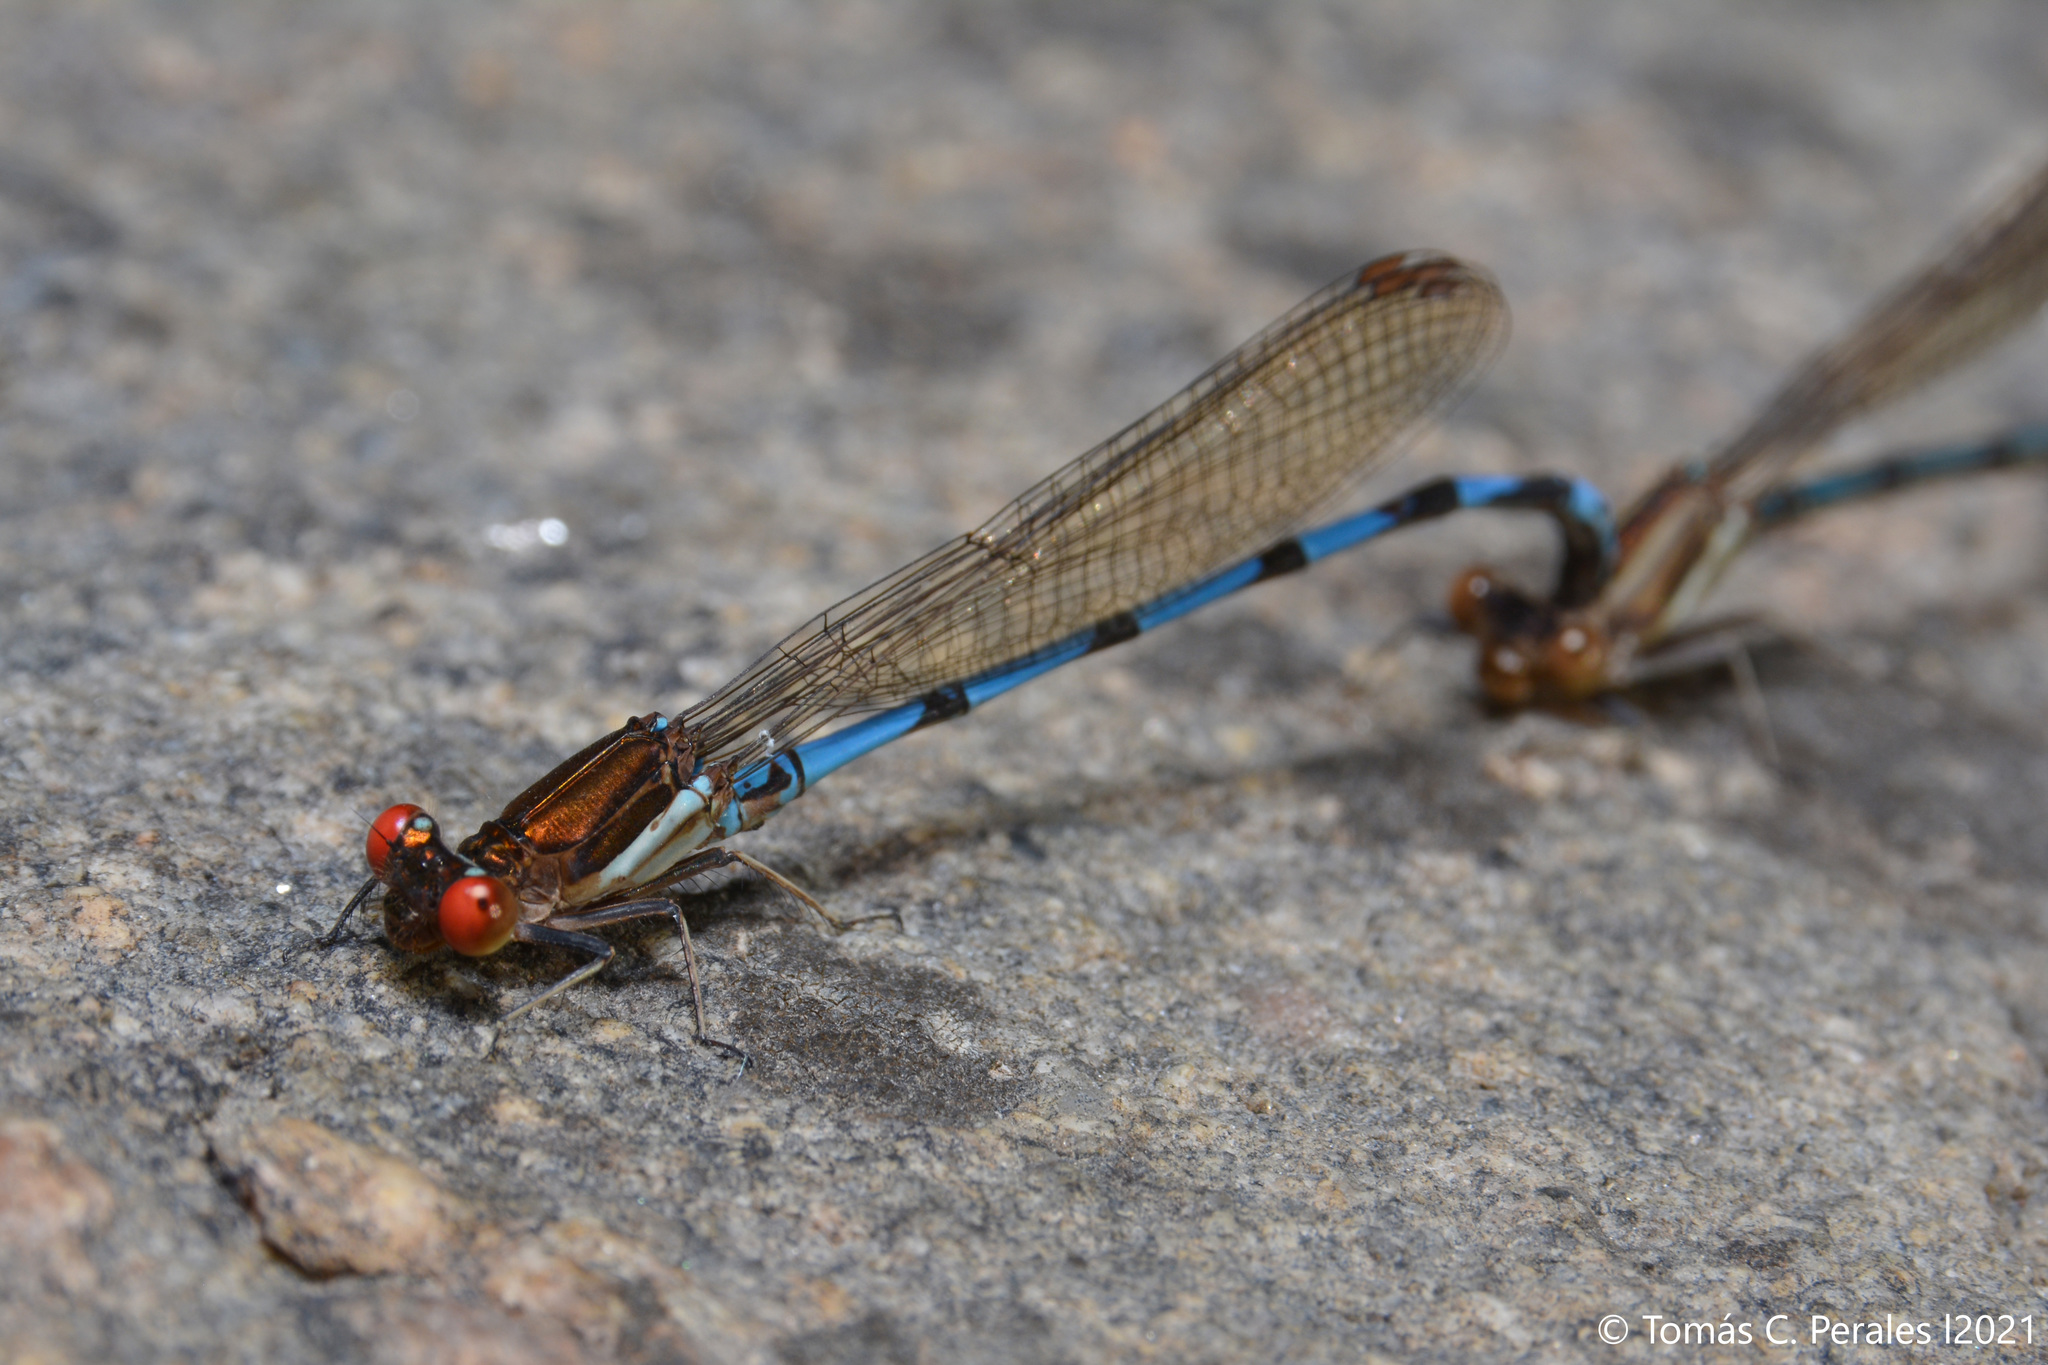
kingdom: Animalia
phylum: Arthropoda
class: Insecta
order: Odonata
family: Coenagrionidae
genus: Argia
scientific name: Argia joergenseni
